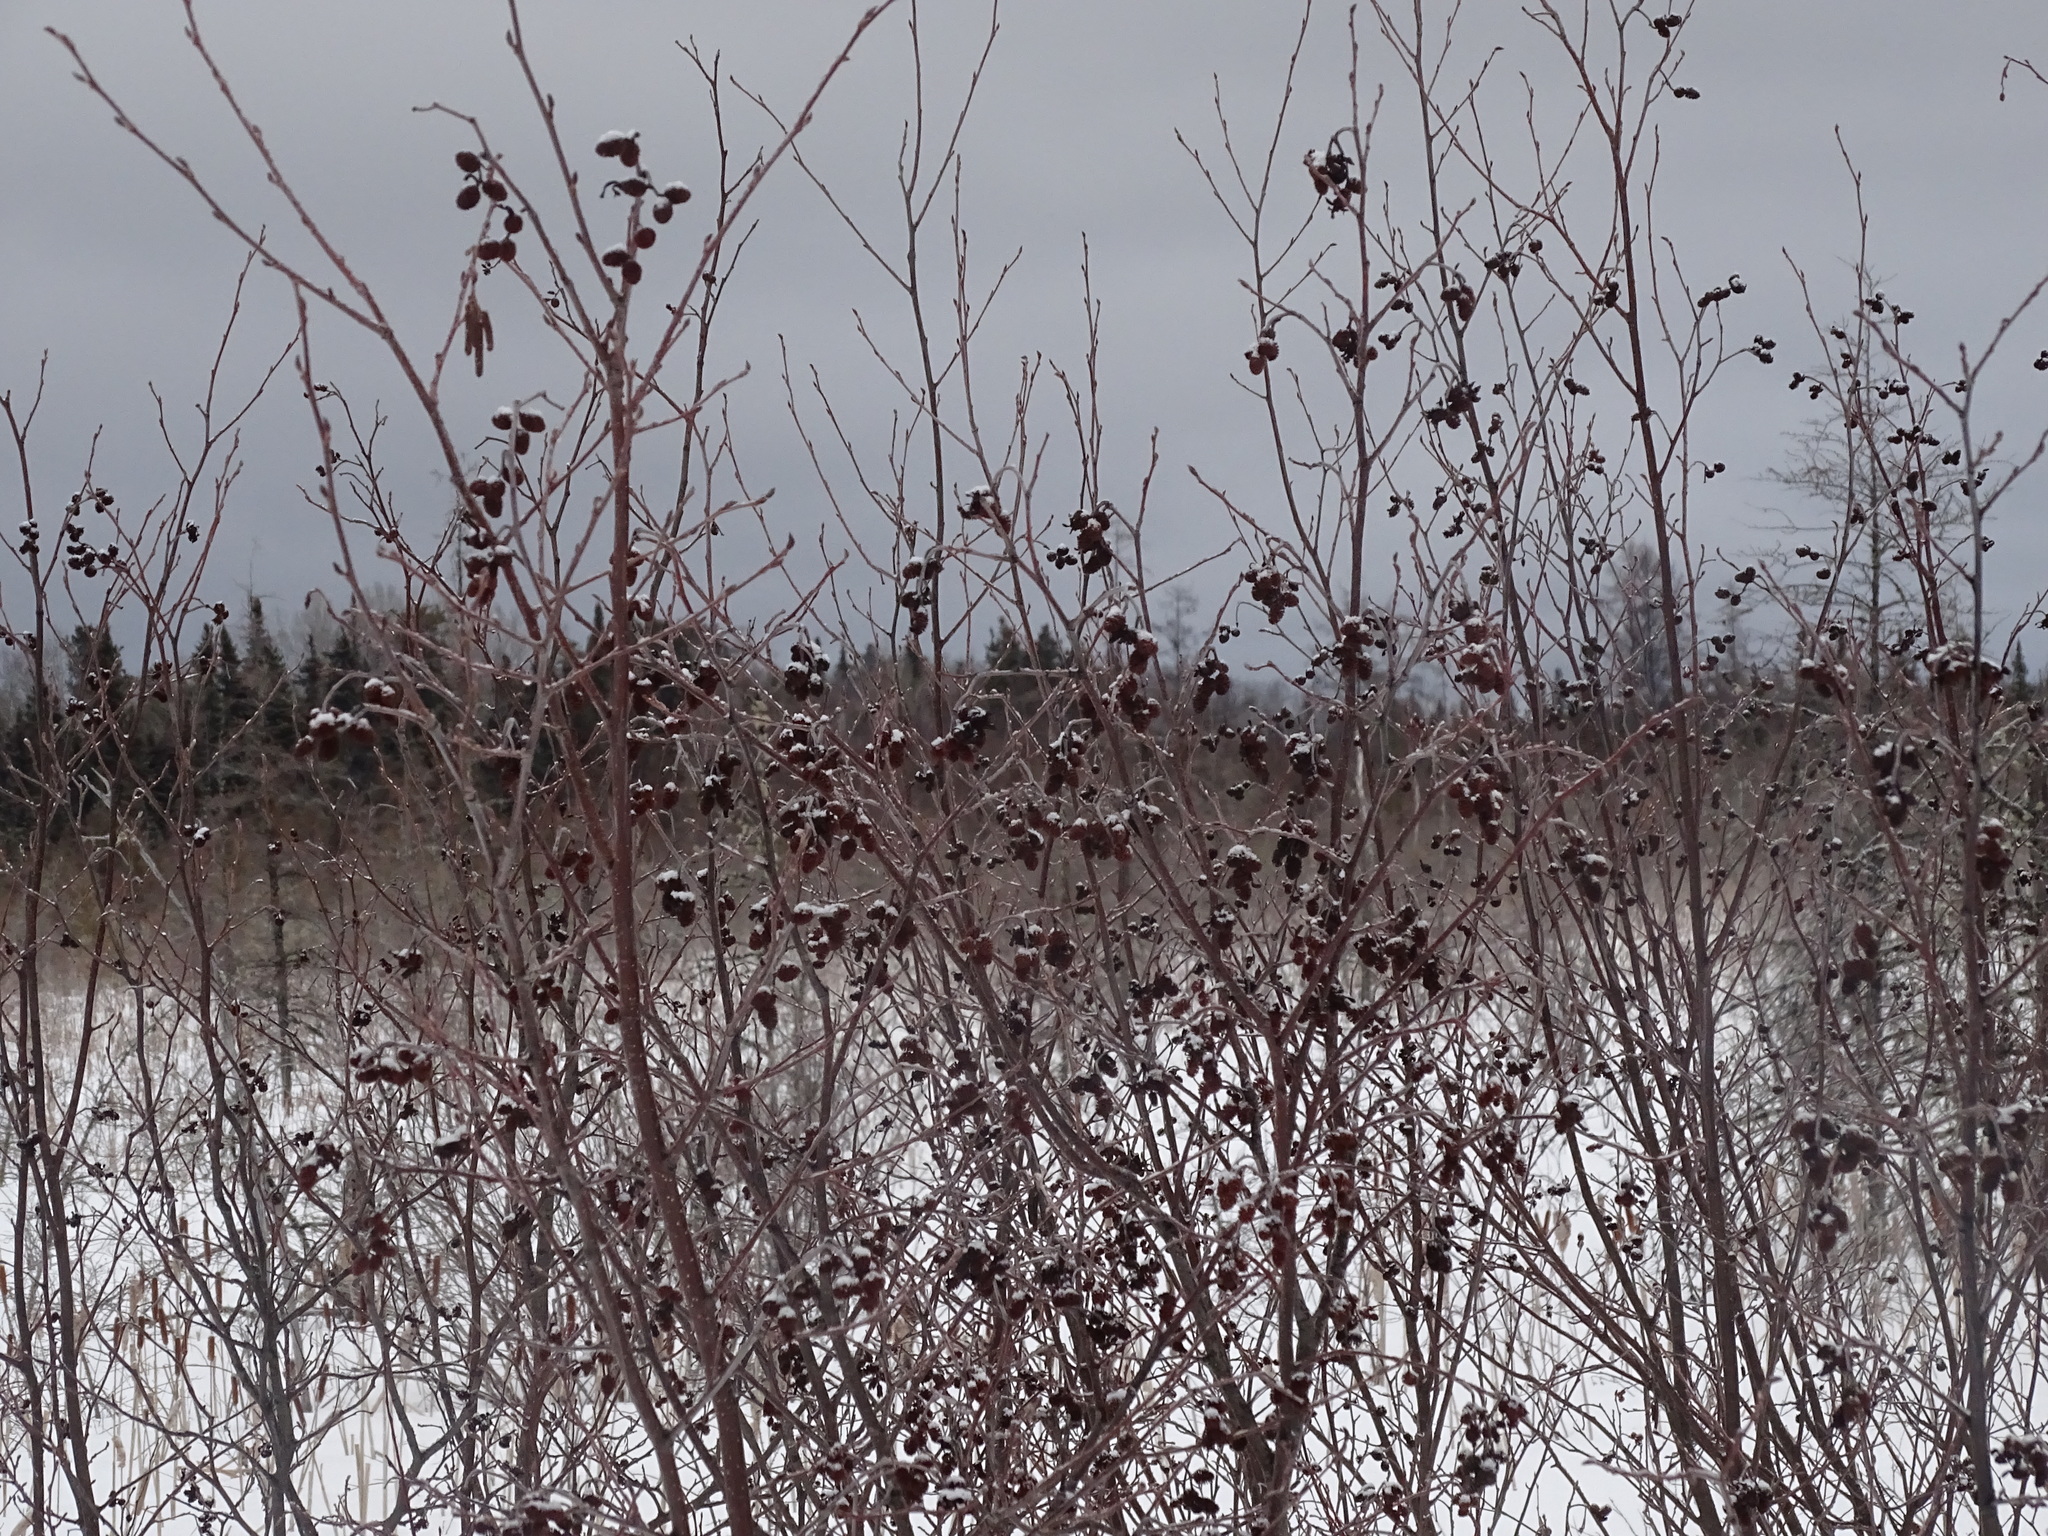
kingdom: Plantae
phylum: Tracheophyta
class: Magnoliopsida
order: Fagales
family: Betulaceae
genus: Alnus
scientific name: Alnus incana
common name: Grey alder
